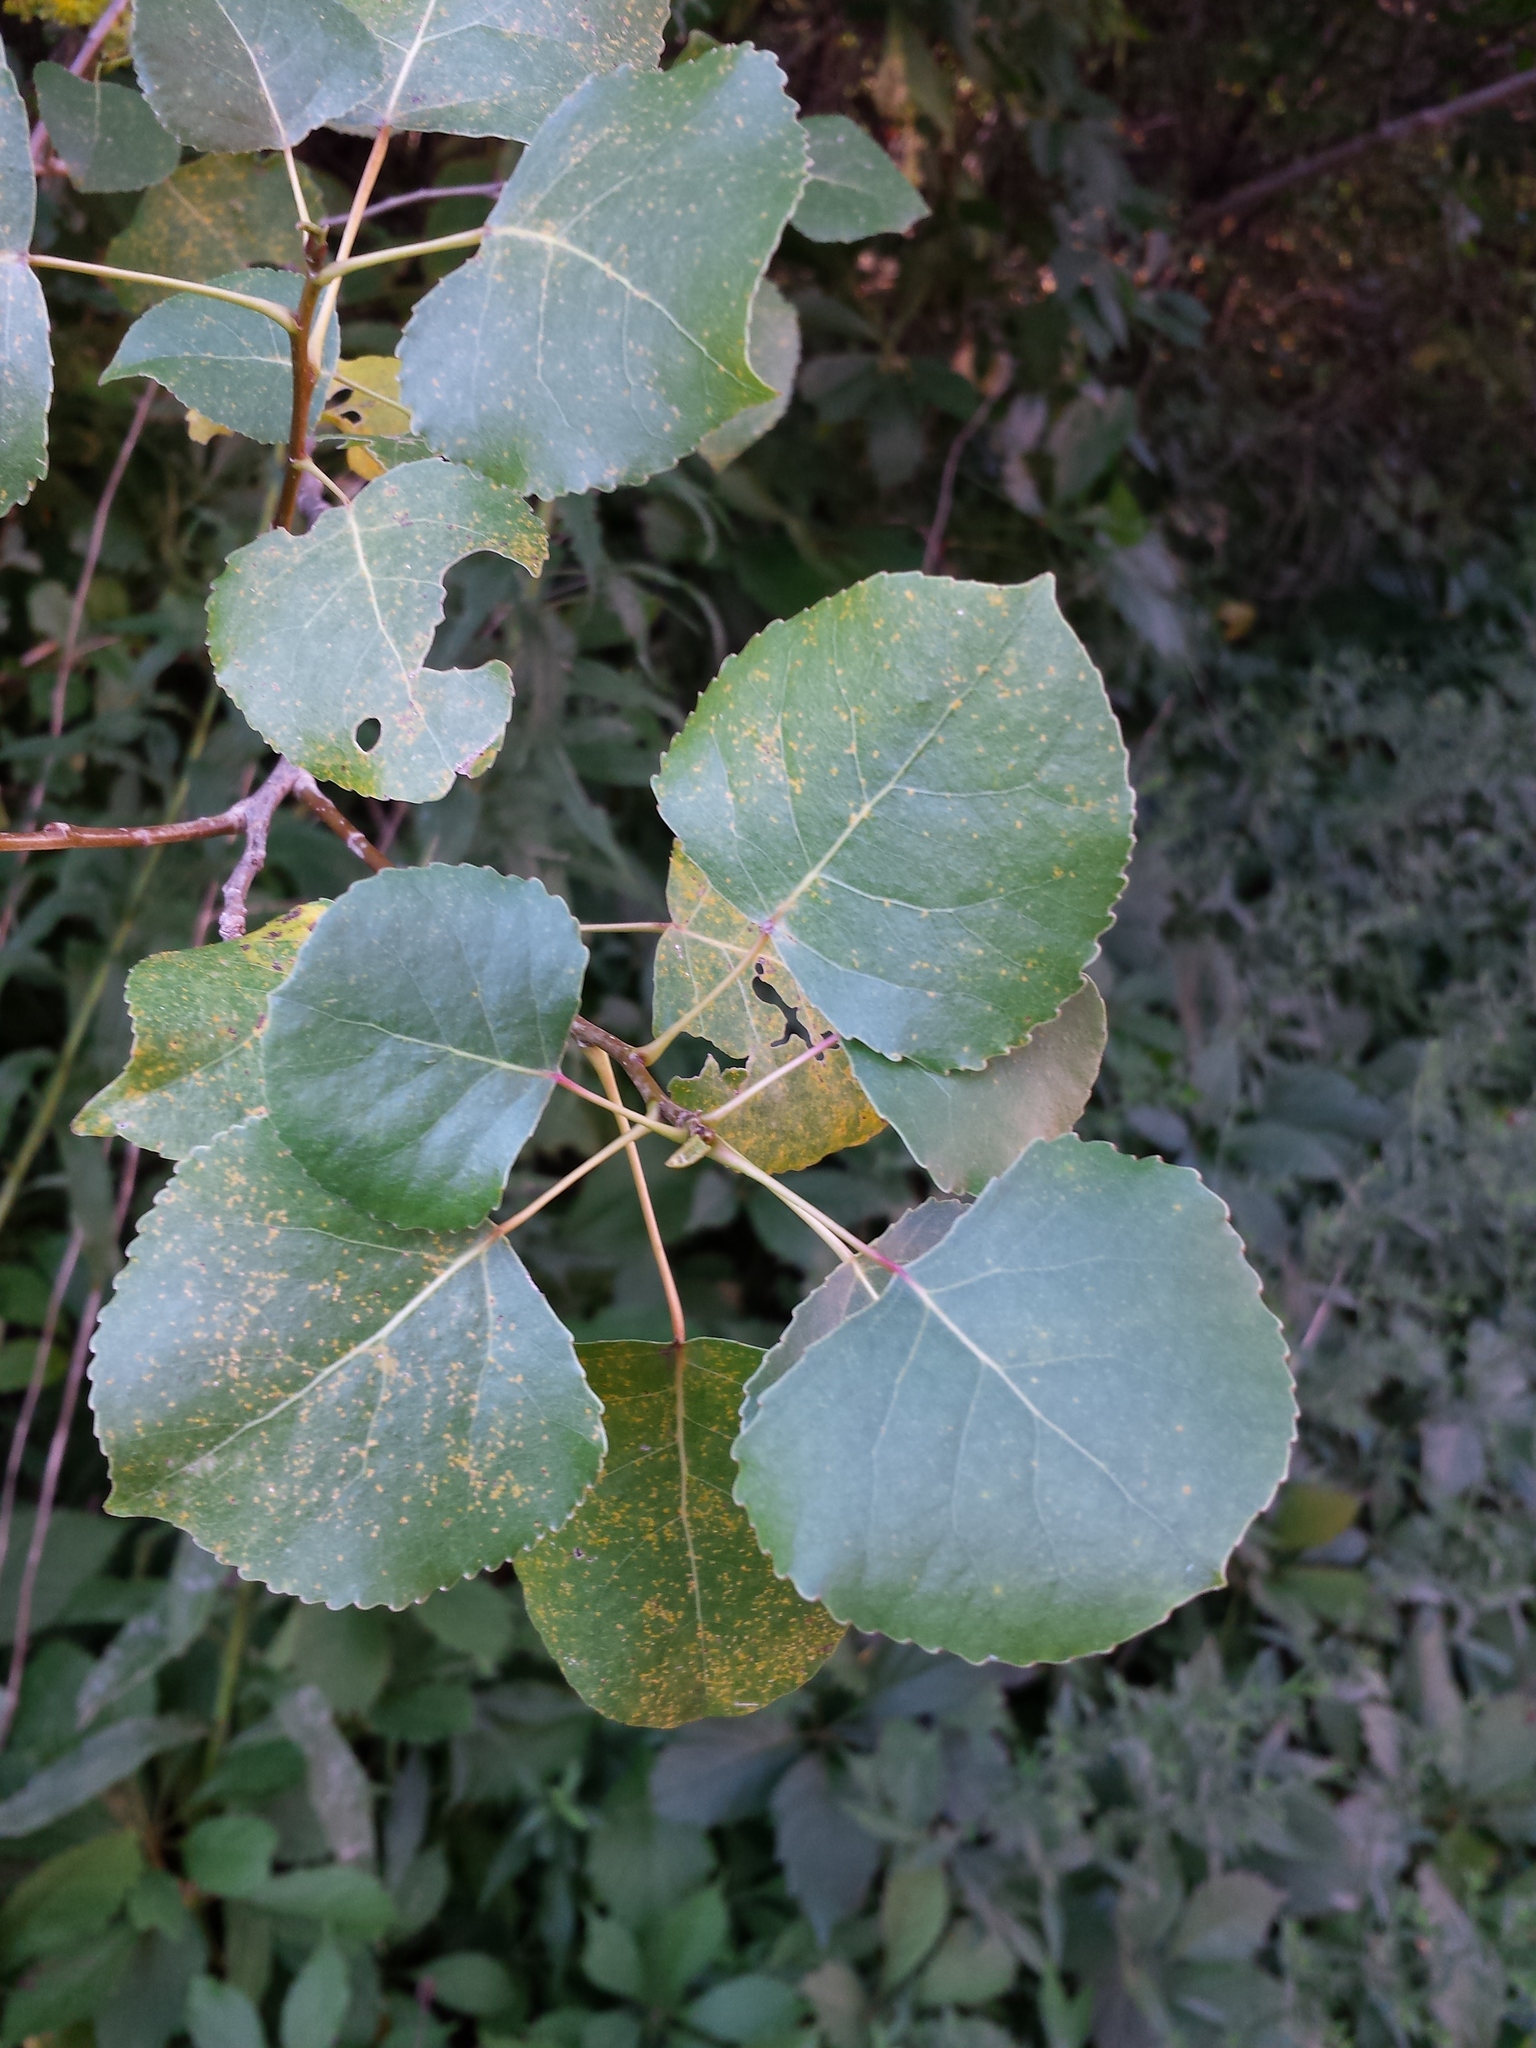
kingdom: Plantae
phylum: Tracheophyta
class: Magnoliopsida
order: Malpighiales
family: Salicaceae
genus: Populus
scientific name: Populus deltoides
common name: Eastern cottonwood
